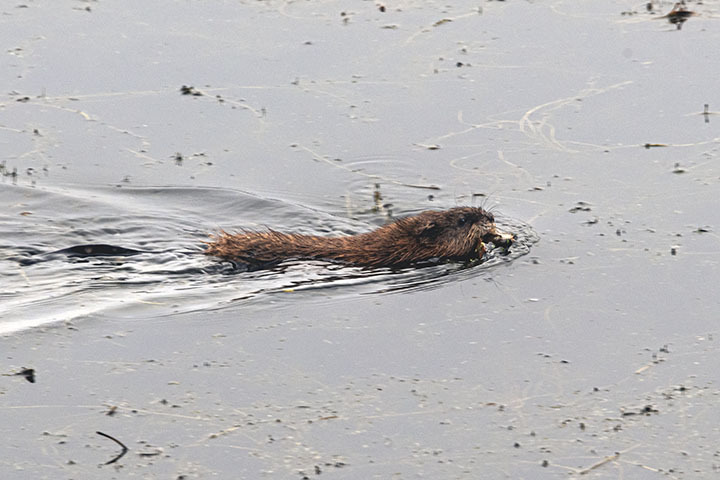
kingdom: Animalia
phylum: Chordata
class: Mammalia
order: Rodentia
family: Cricetidae
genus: Ondatra
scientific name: Ondatra zibethicus
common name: Muskrat
